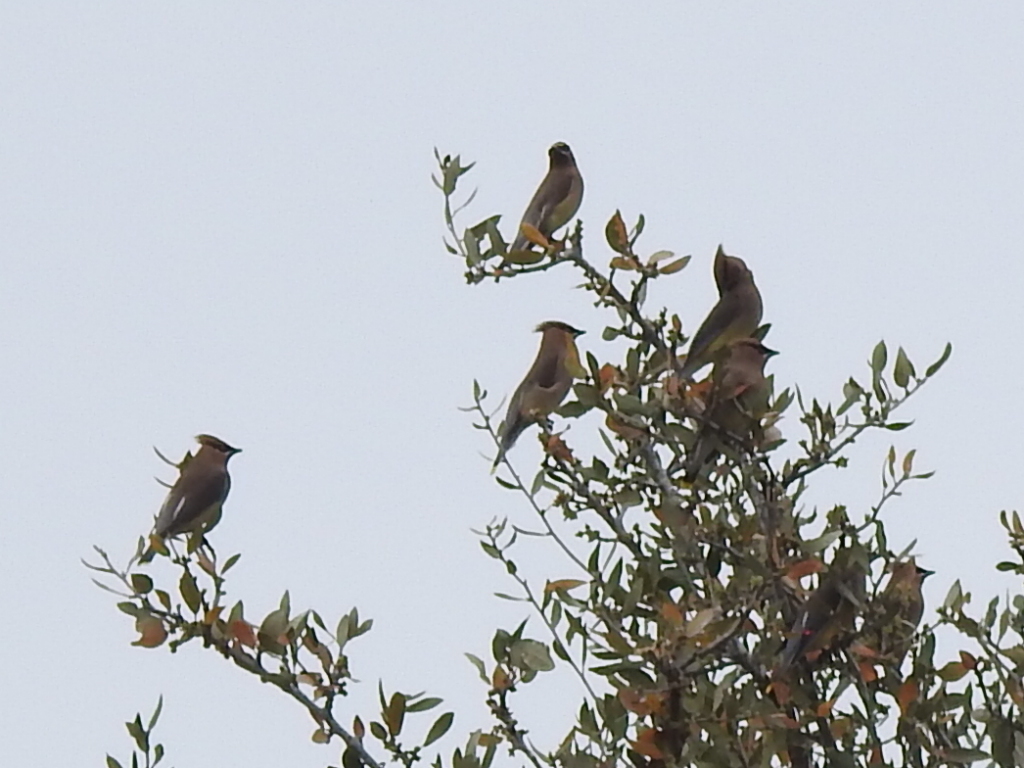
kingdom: Animalia
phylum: Chordata
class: Aves
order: Passeriformes
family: Bombycillidae
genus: Bombycilla
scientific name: Bombycilla cedrorum
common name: Cedar waxwing
